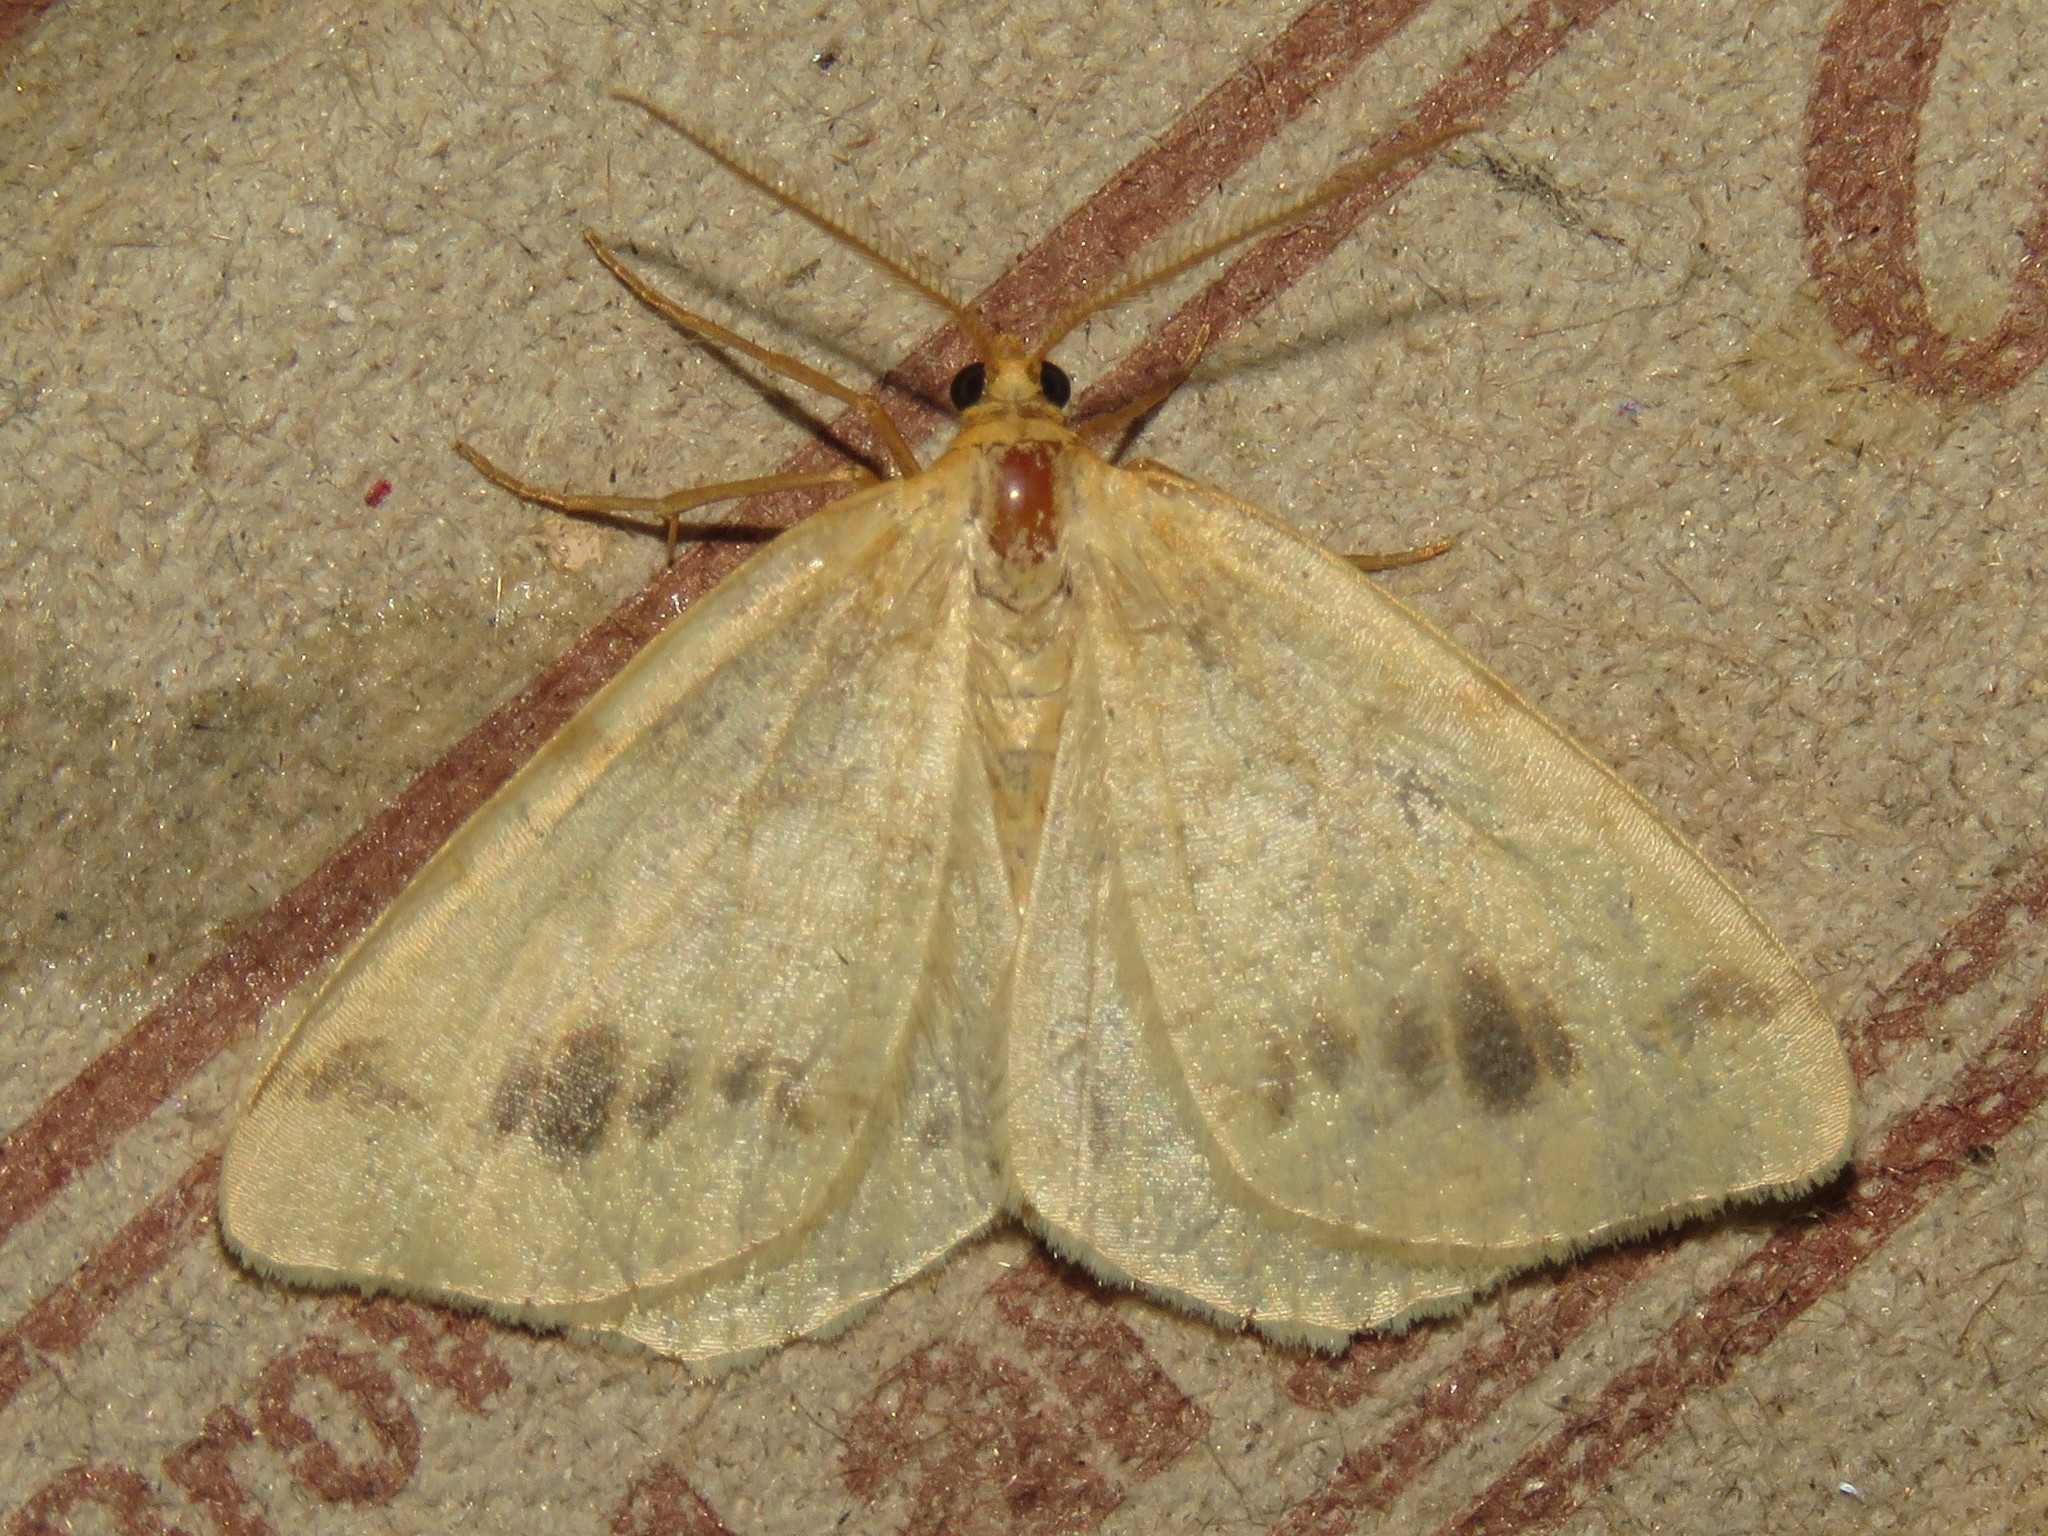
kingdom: Animalia
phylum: Arthropoda
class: Insecta
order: Lepidoptera
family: Geometridae
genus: Macaria
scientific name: Macaria ribearia
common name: Currant spanworm moth
